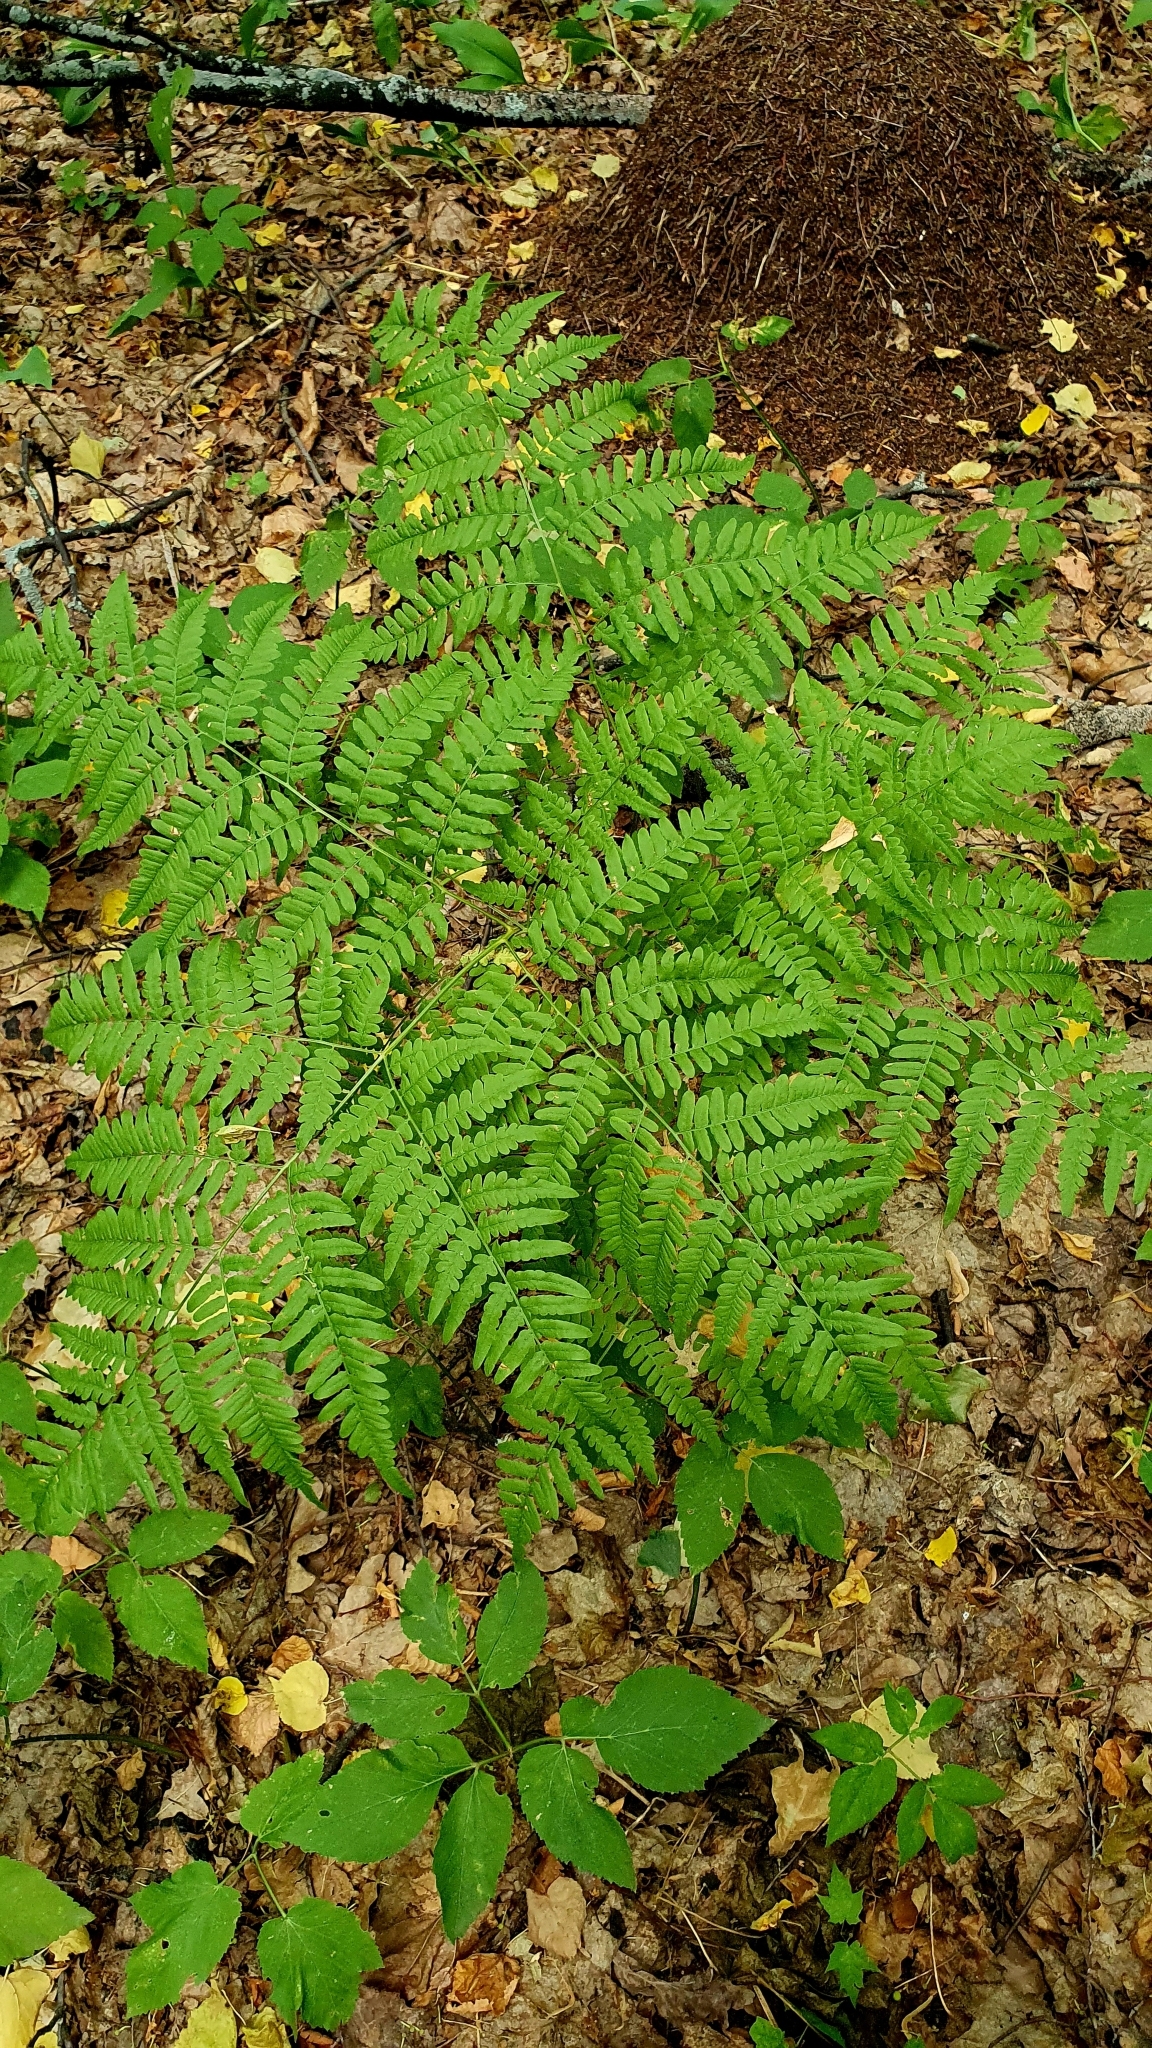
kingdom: Plantae
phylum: Tracheophyta
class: Polypodiopsida
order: Polypodiales
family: Dennstaedtiaceae
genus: Pteridium
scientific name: Pteridium aquilinum
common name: Bracken
